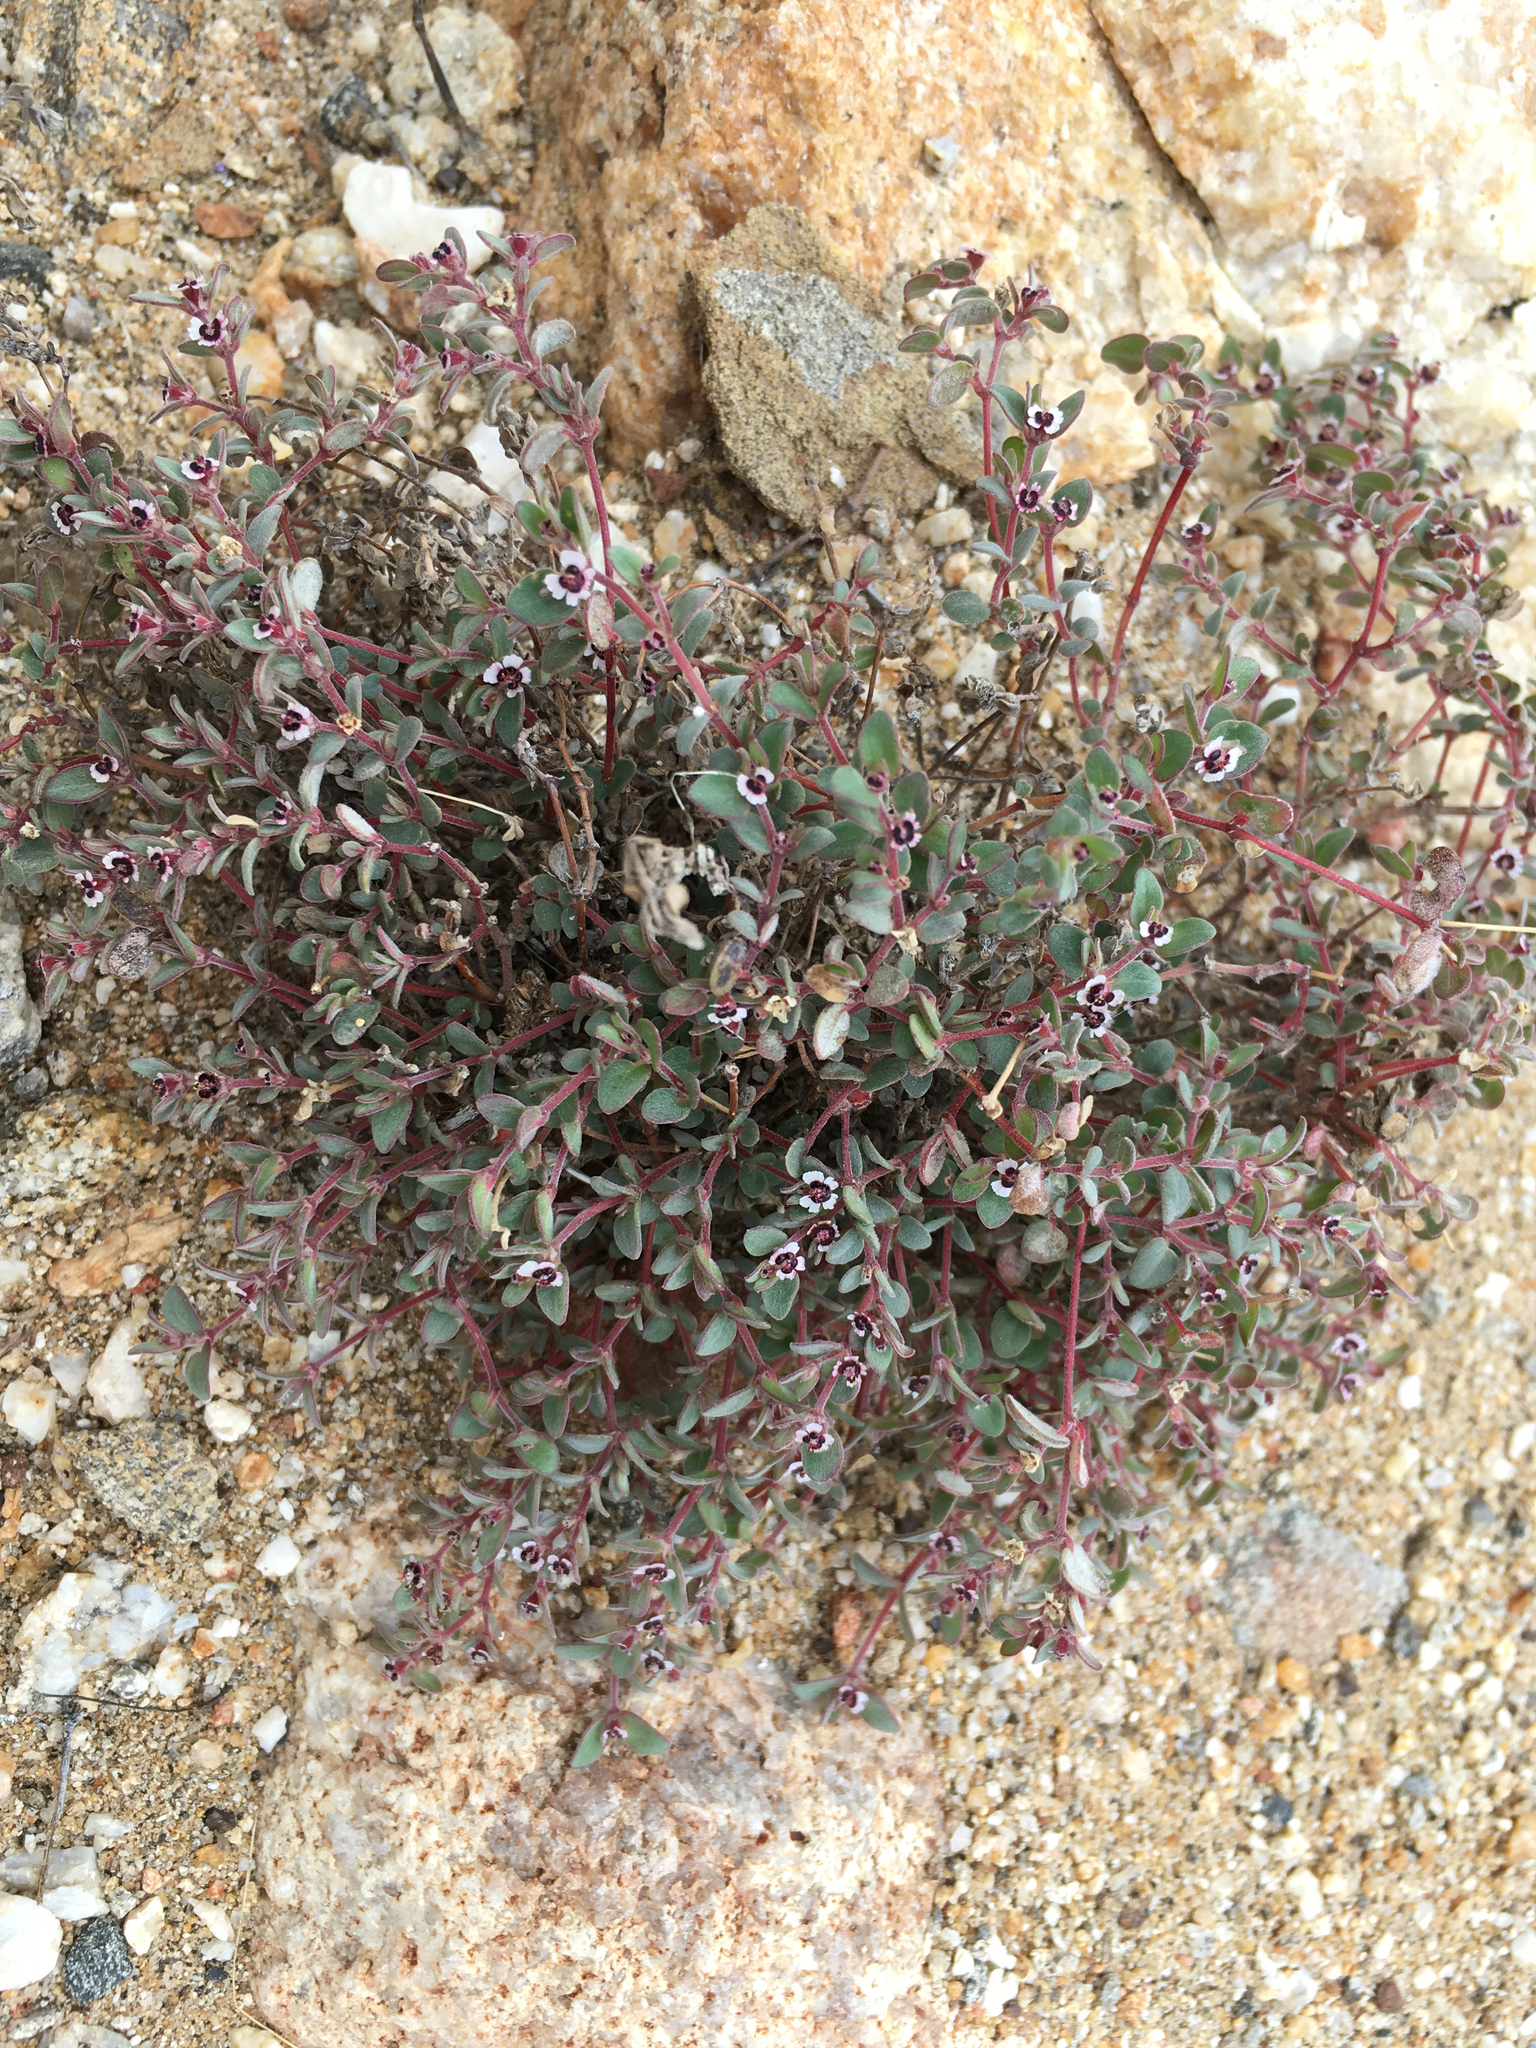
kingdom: Plantae
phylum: Tracheophyta
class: Magnoliopsida
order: Malpighiales
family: Euphorbiaceae
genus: Euphorbia
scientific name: Euphorbia melanadenia
